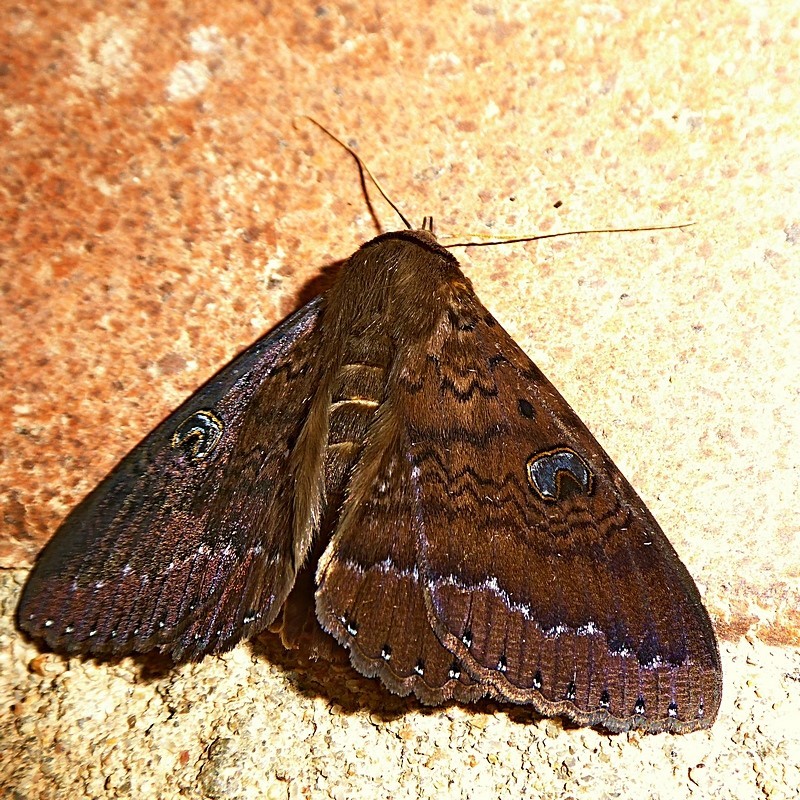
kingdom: Animalia
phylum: Arthropoda
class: Insecta
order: Lepidoptera
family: Erebidae
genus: Dasypodia
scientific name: Dasypodia selenophora
